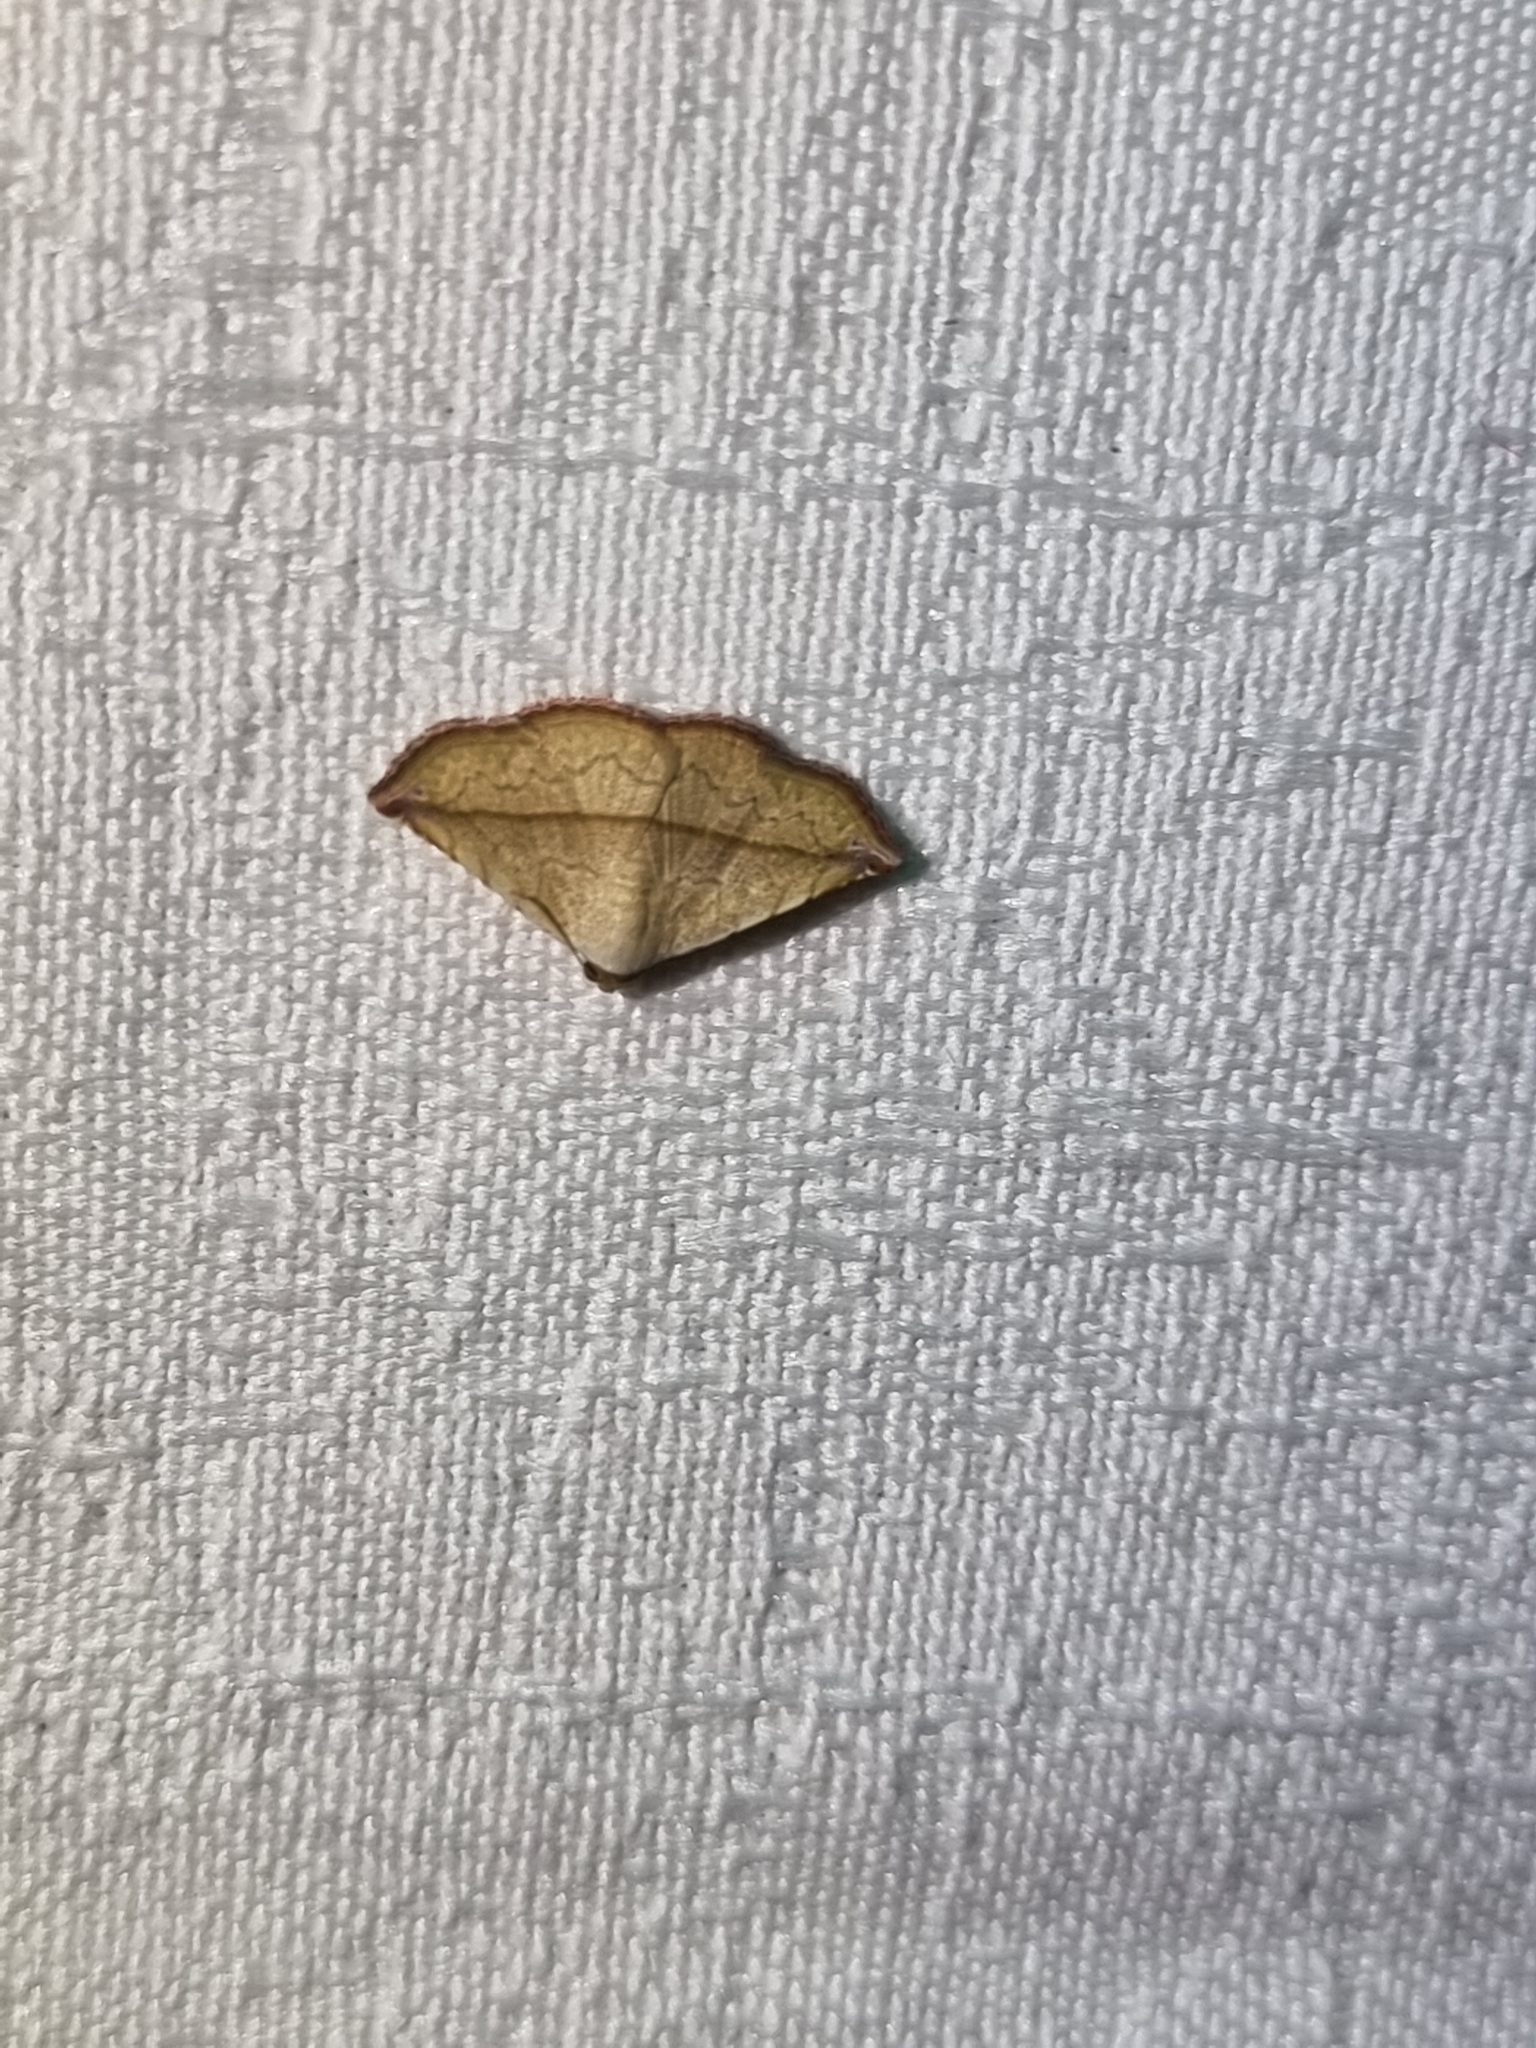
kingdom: Animalia
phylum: Arthropoda
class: Insecta
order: Lepidoptera
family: Noctuidae
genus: Eublemma
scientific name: Eublemma perversicolor
